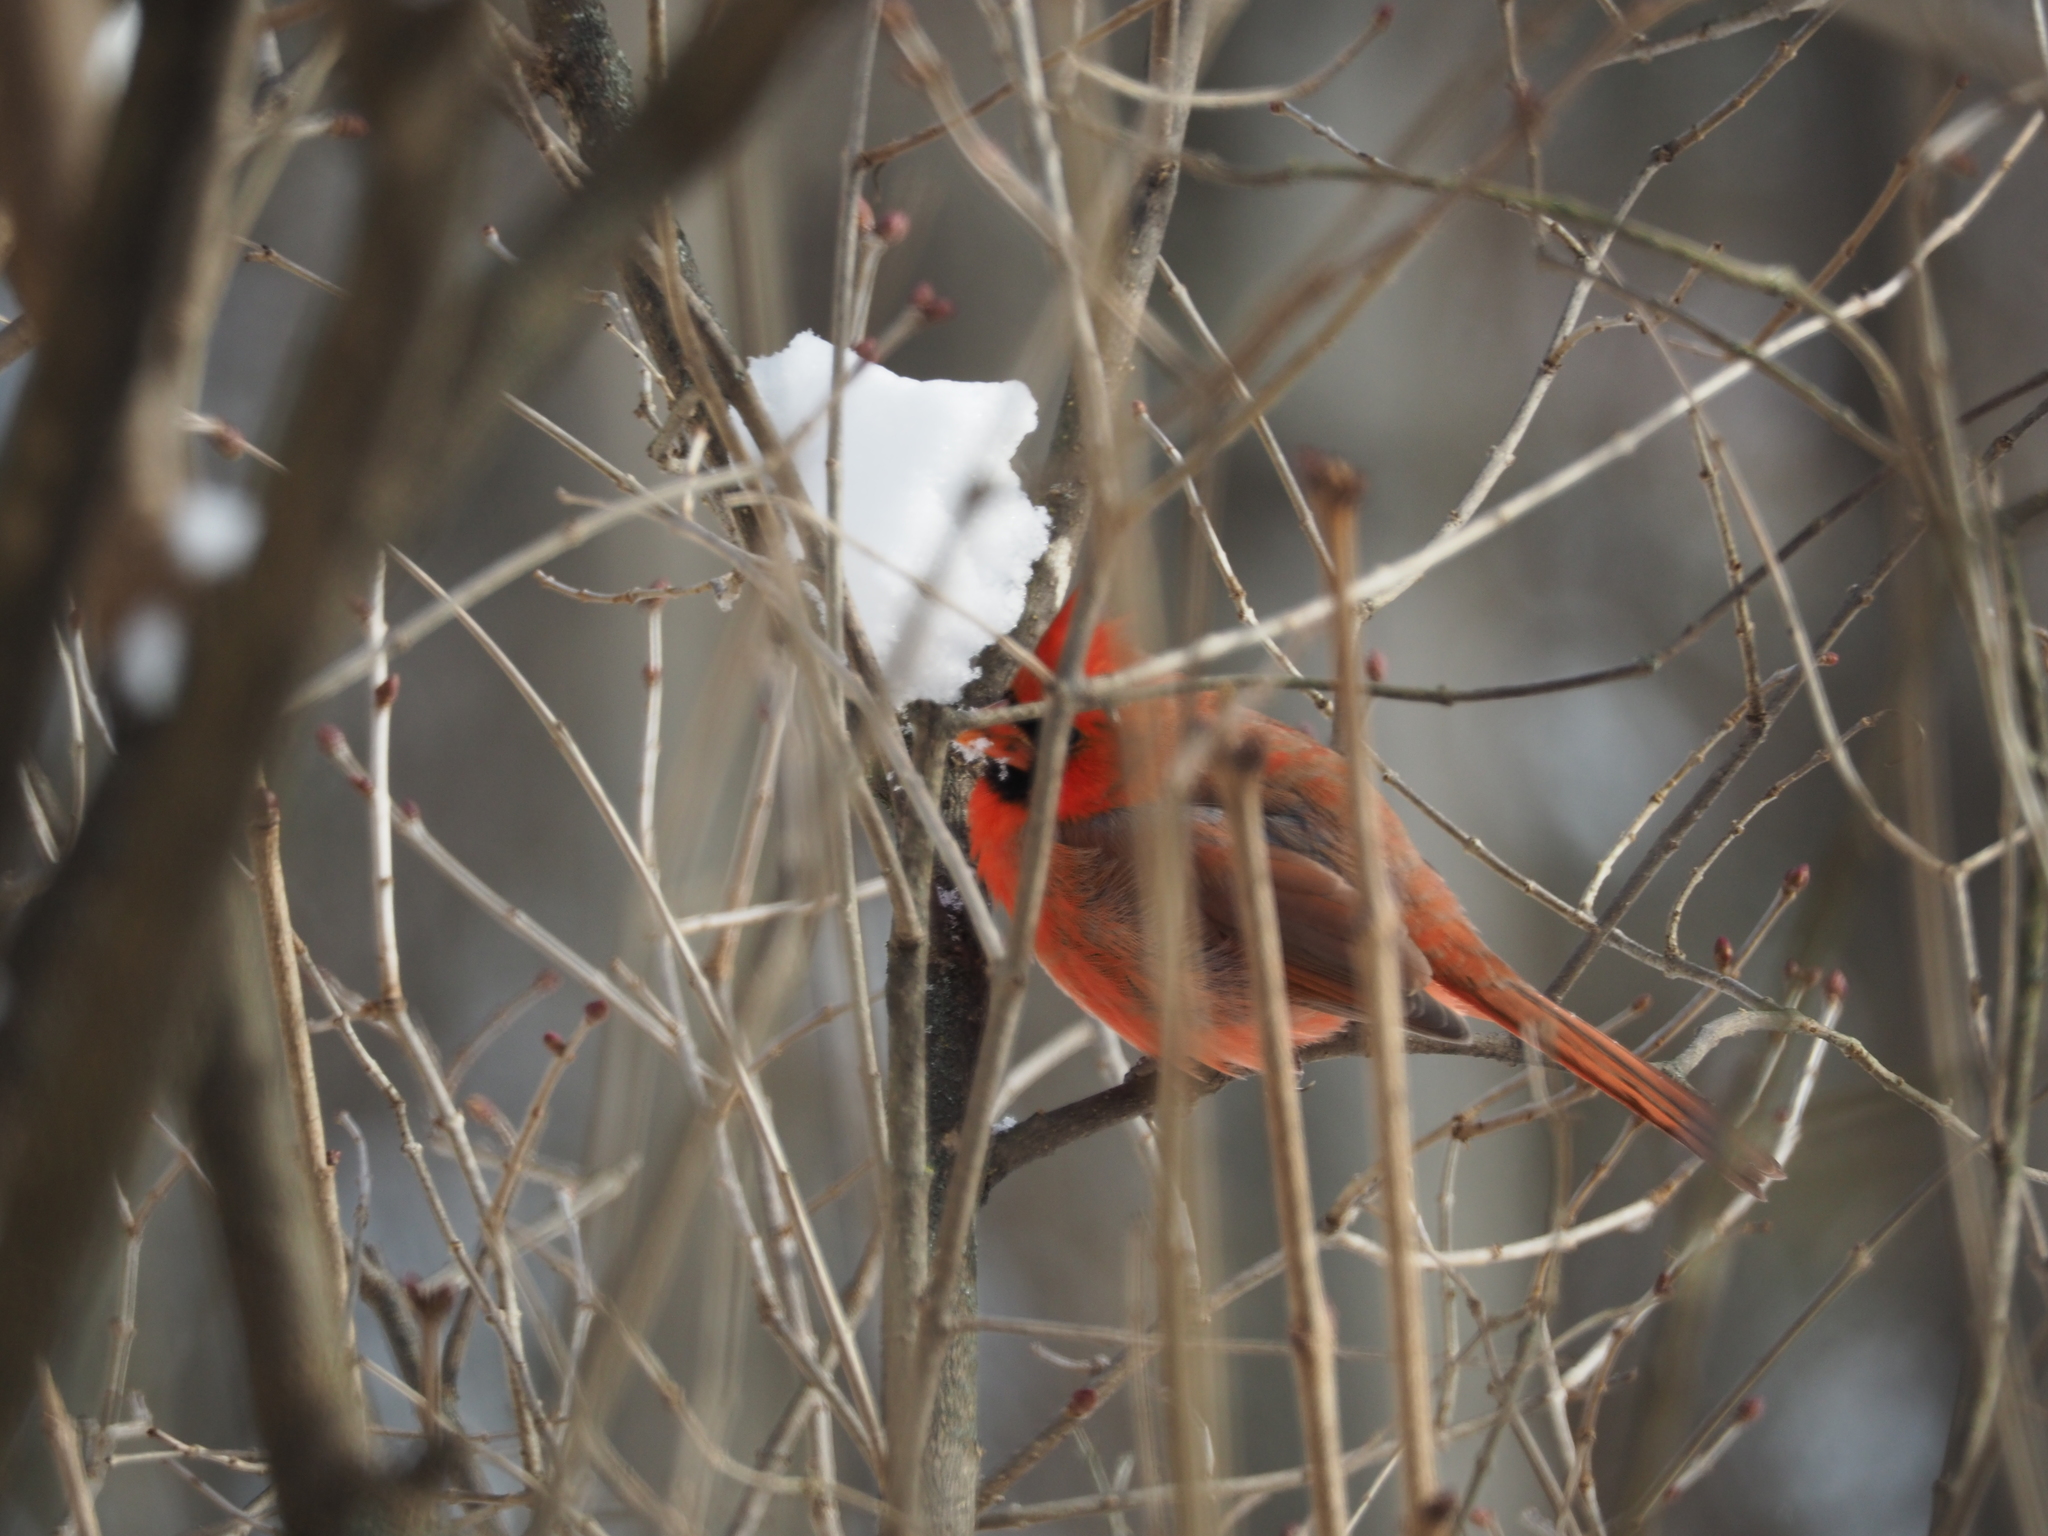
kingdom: Animalia
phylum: Chordata
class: Aves
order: Passeriformes
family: Cardinalidae
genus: Cardinalis
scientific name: Cardinalis cardinalis
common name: Northern cardinal
